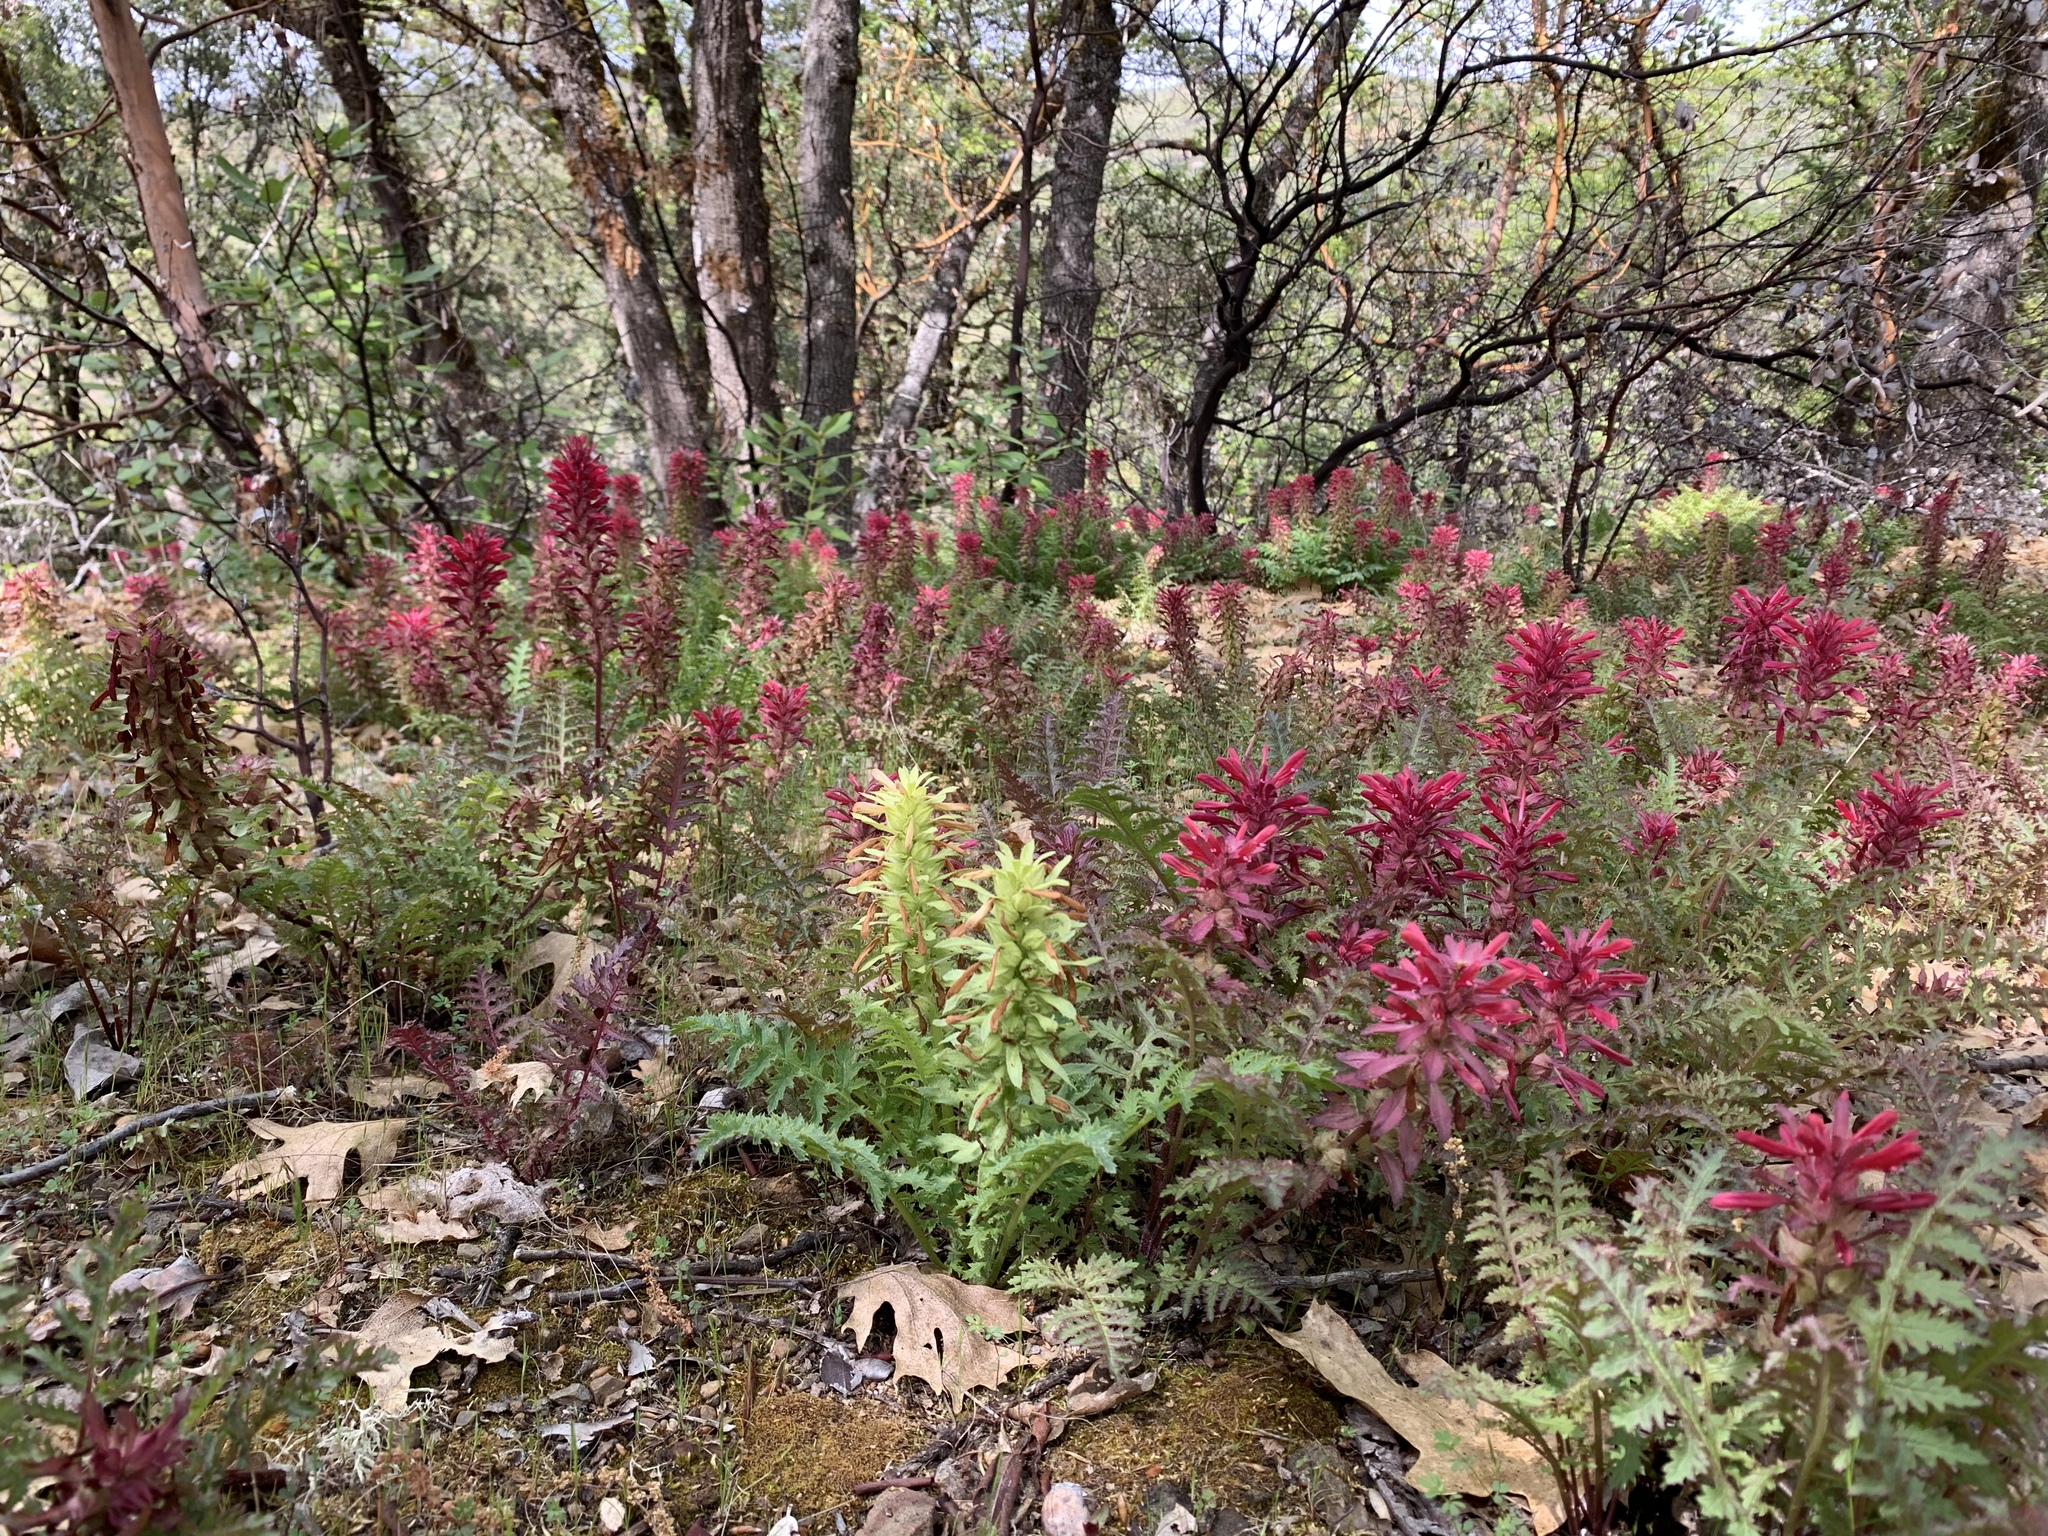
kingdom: Plantae
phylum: Tracheophyta
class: Magnoliopsida
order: Lamiales
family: Orobanchaceae
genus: Pedicularis
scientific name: Pedicularis densiflora
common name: Indian warrior
